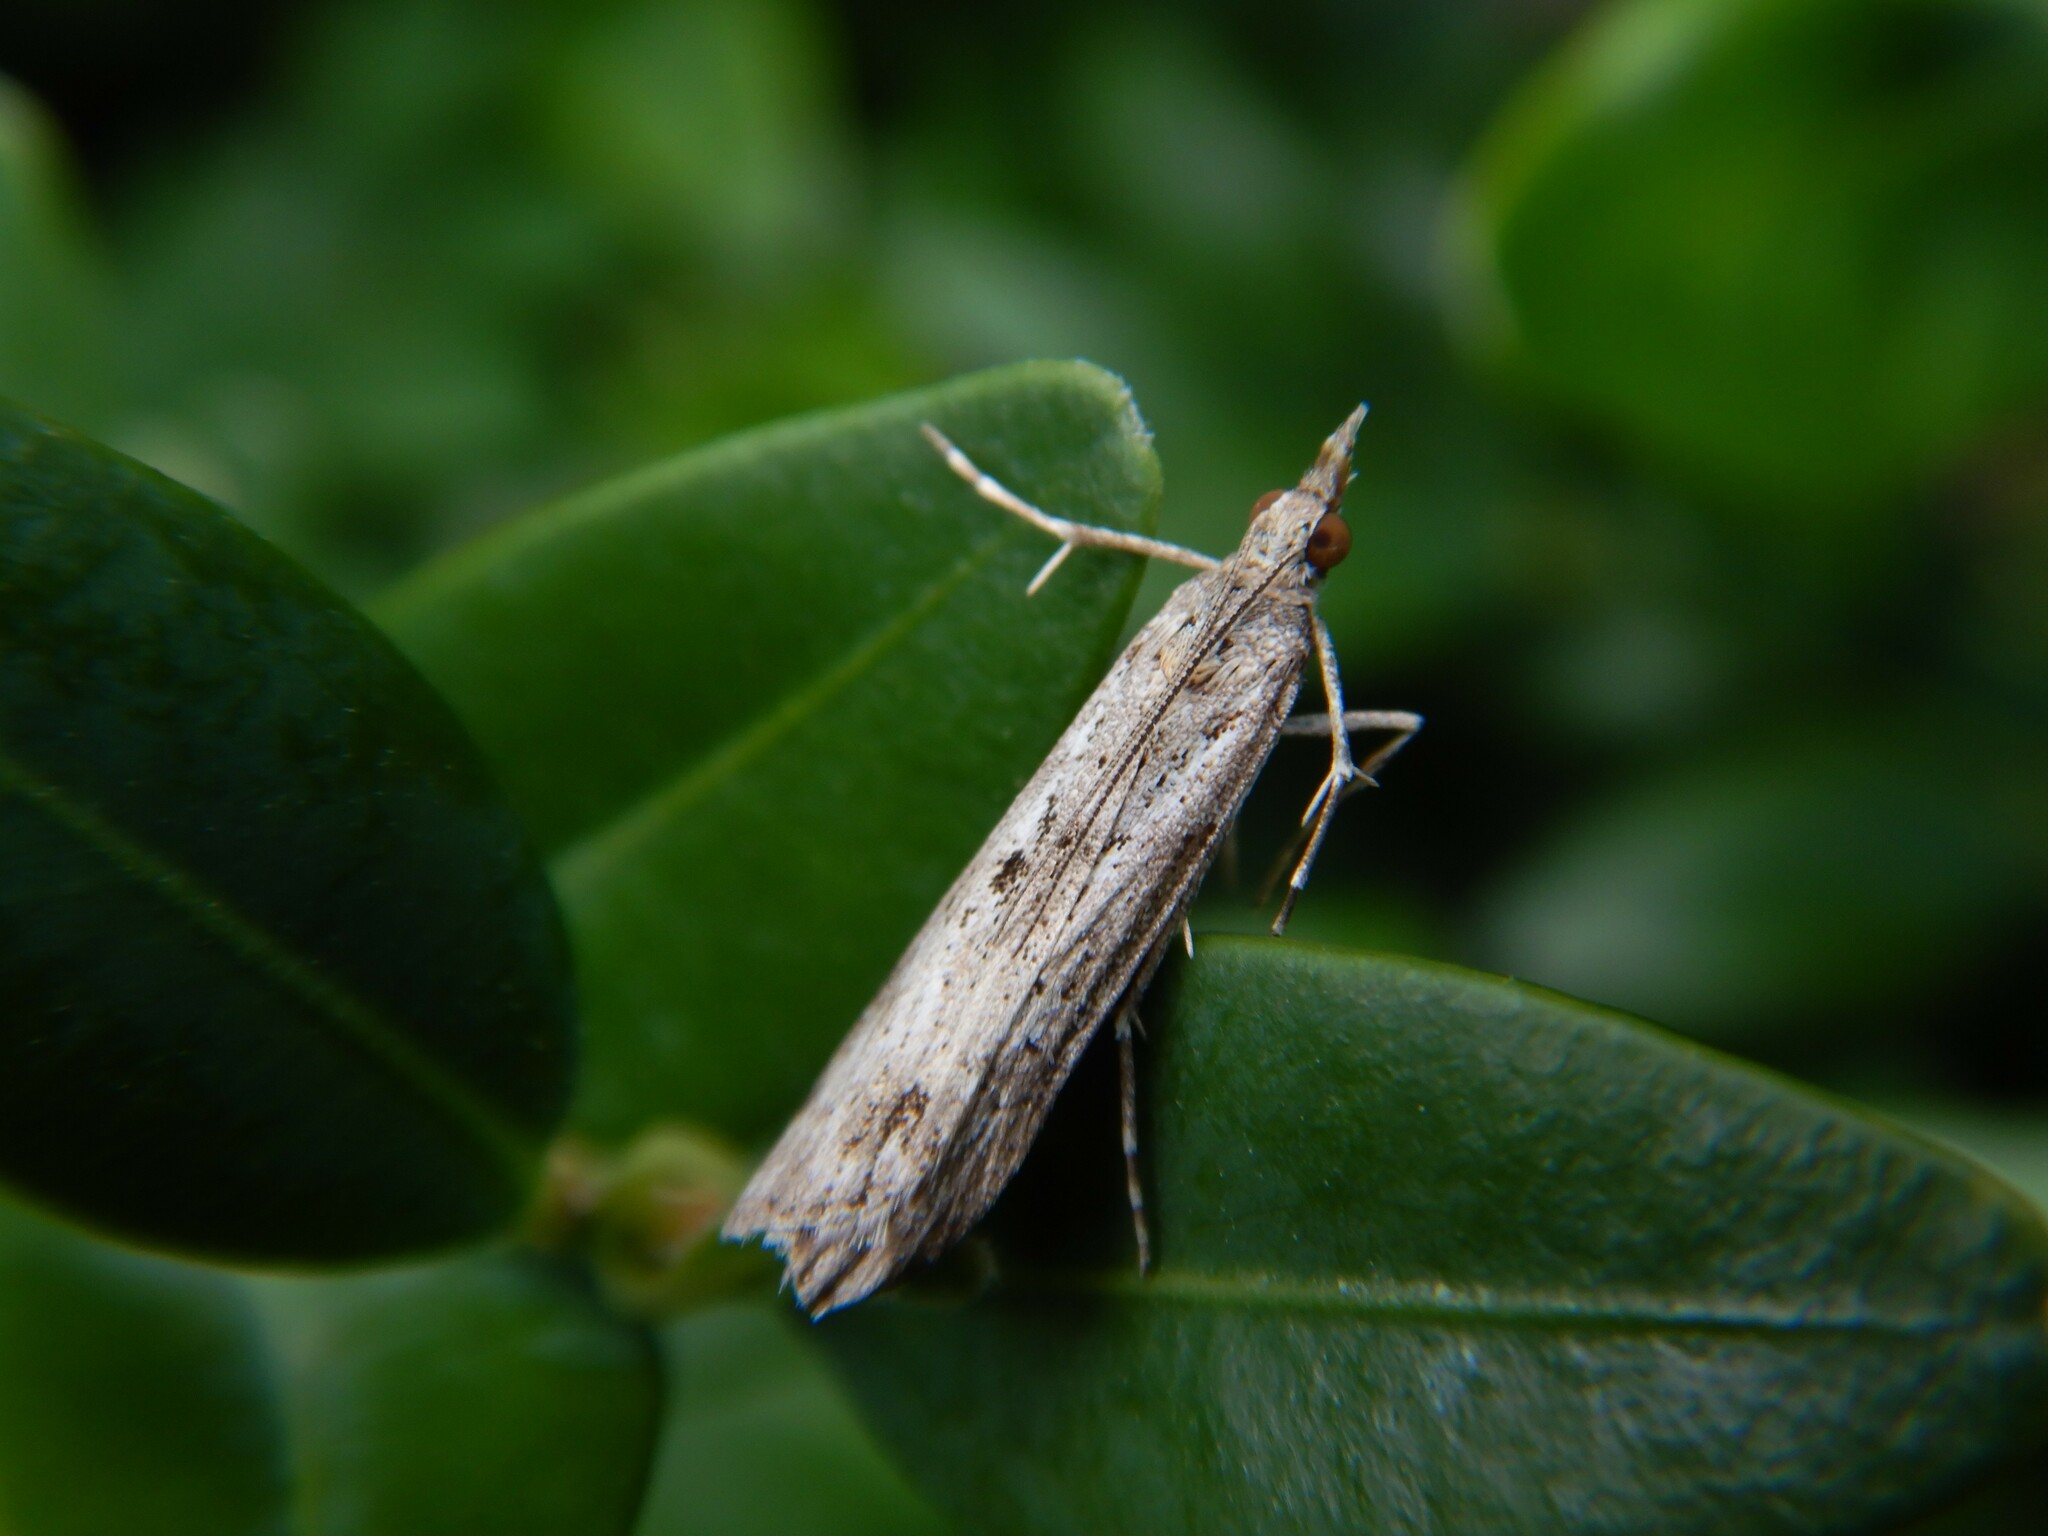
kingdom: Animalia
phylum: Arthropoda
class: Insecta
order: Lepidoptera
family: Crambidae
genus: Eudonia
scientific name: Eudonia leptalea
